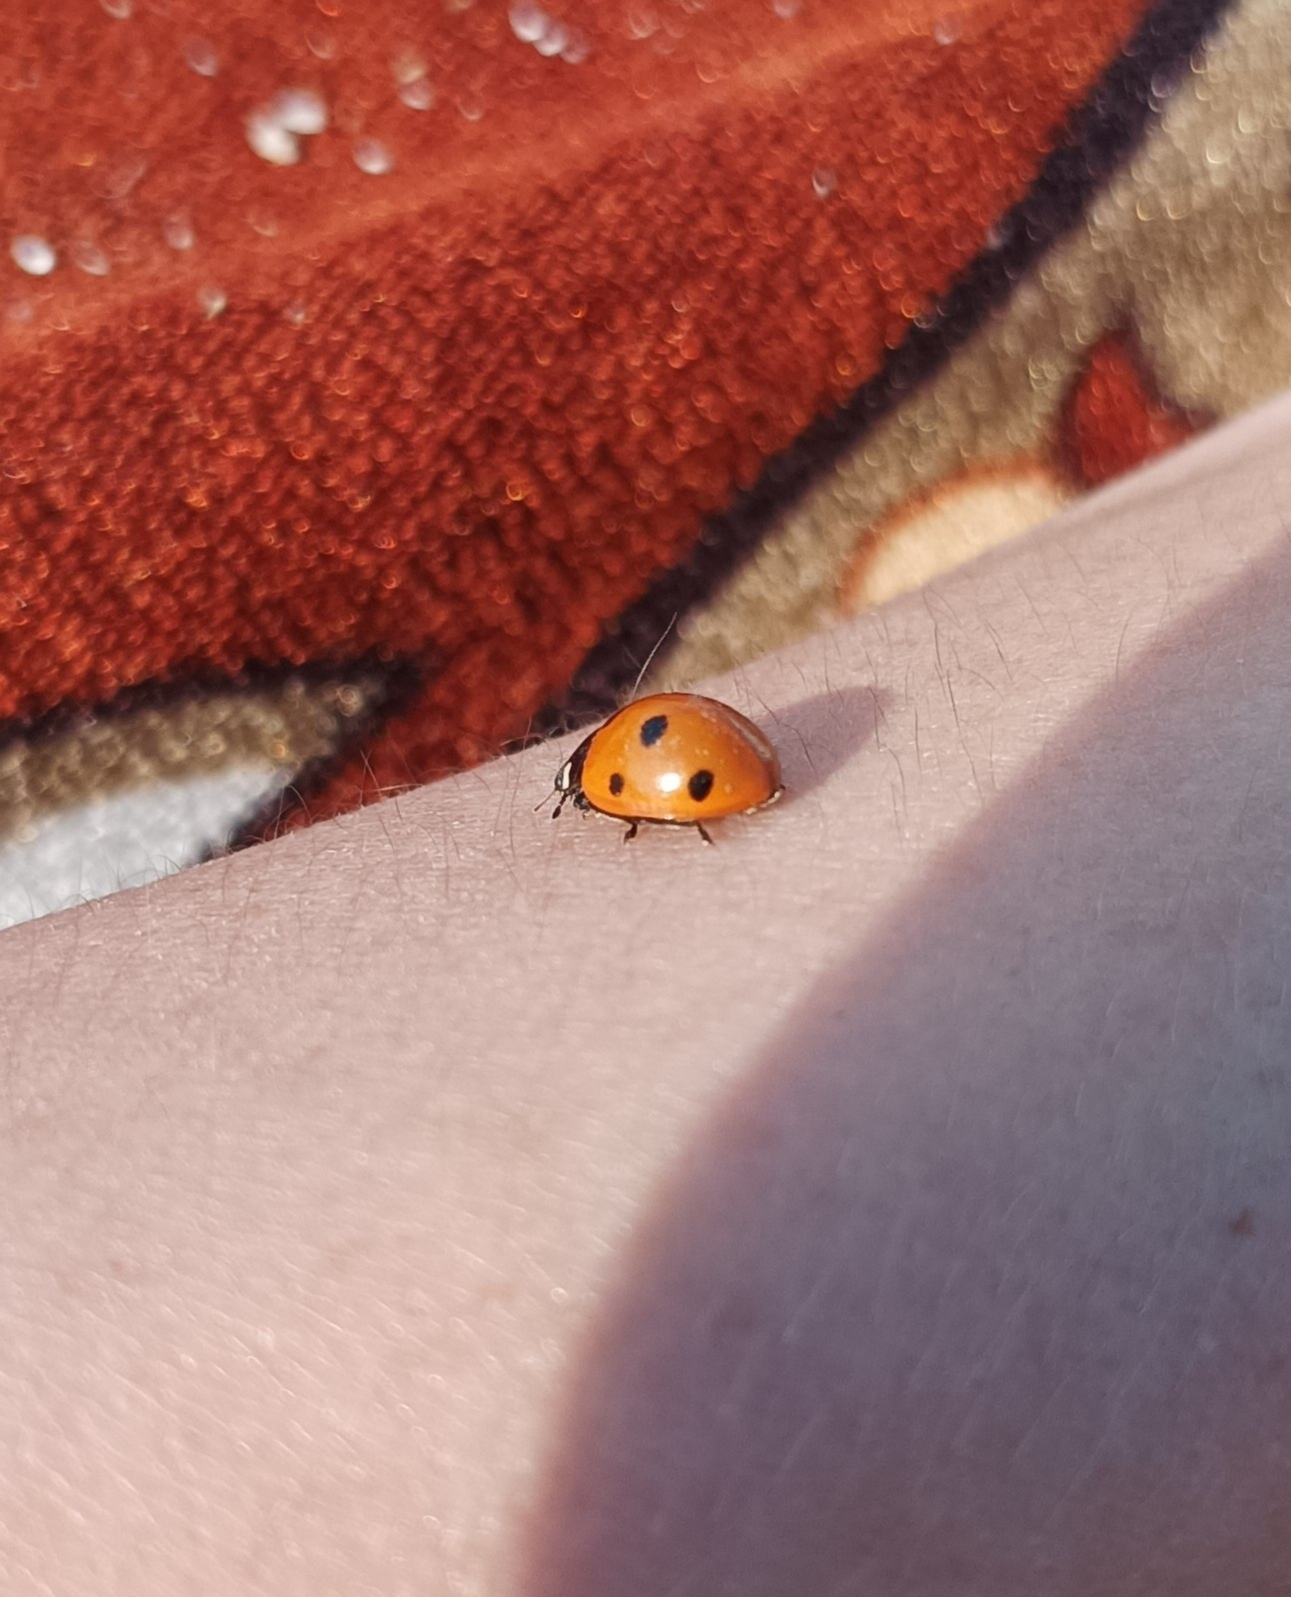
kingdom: Animalia
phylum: Arthropoda
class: Insecta
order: Coleoptera
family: Coccinellidae
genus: Coccinella
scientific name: Coccinella septempunctata
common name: Sevenspotted lady beetle
